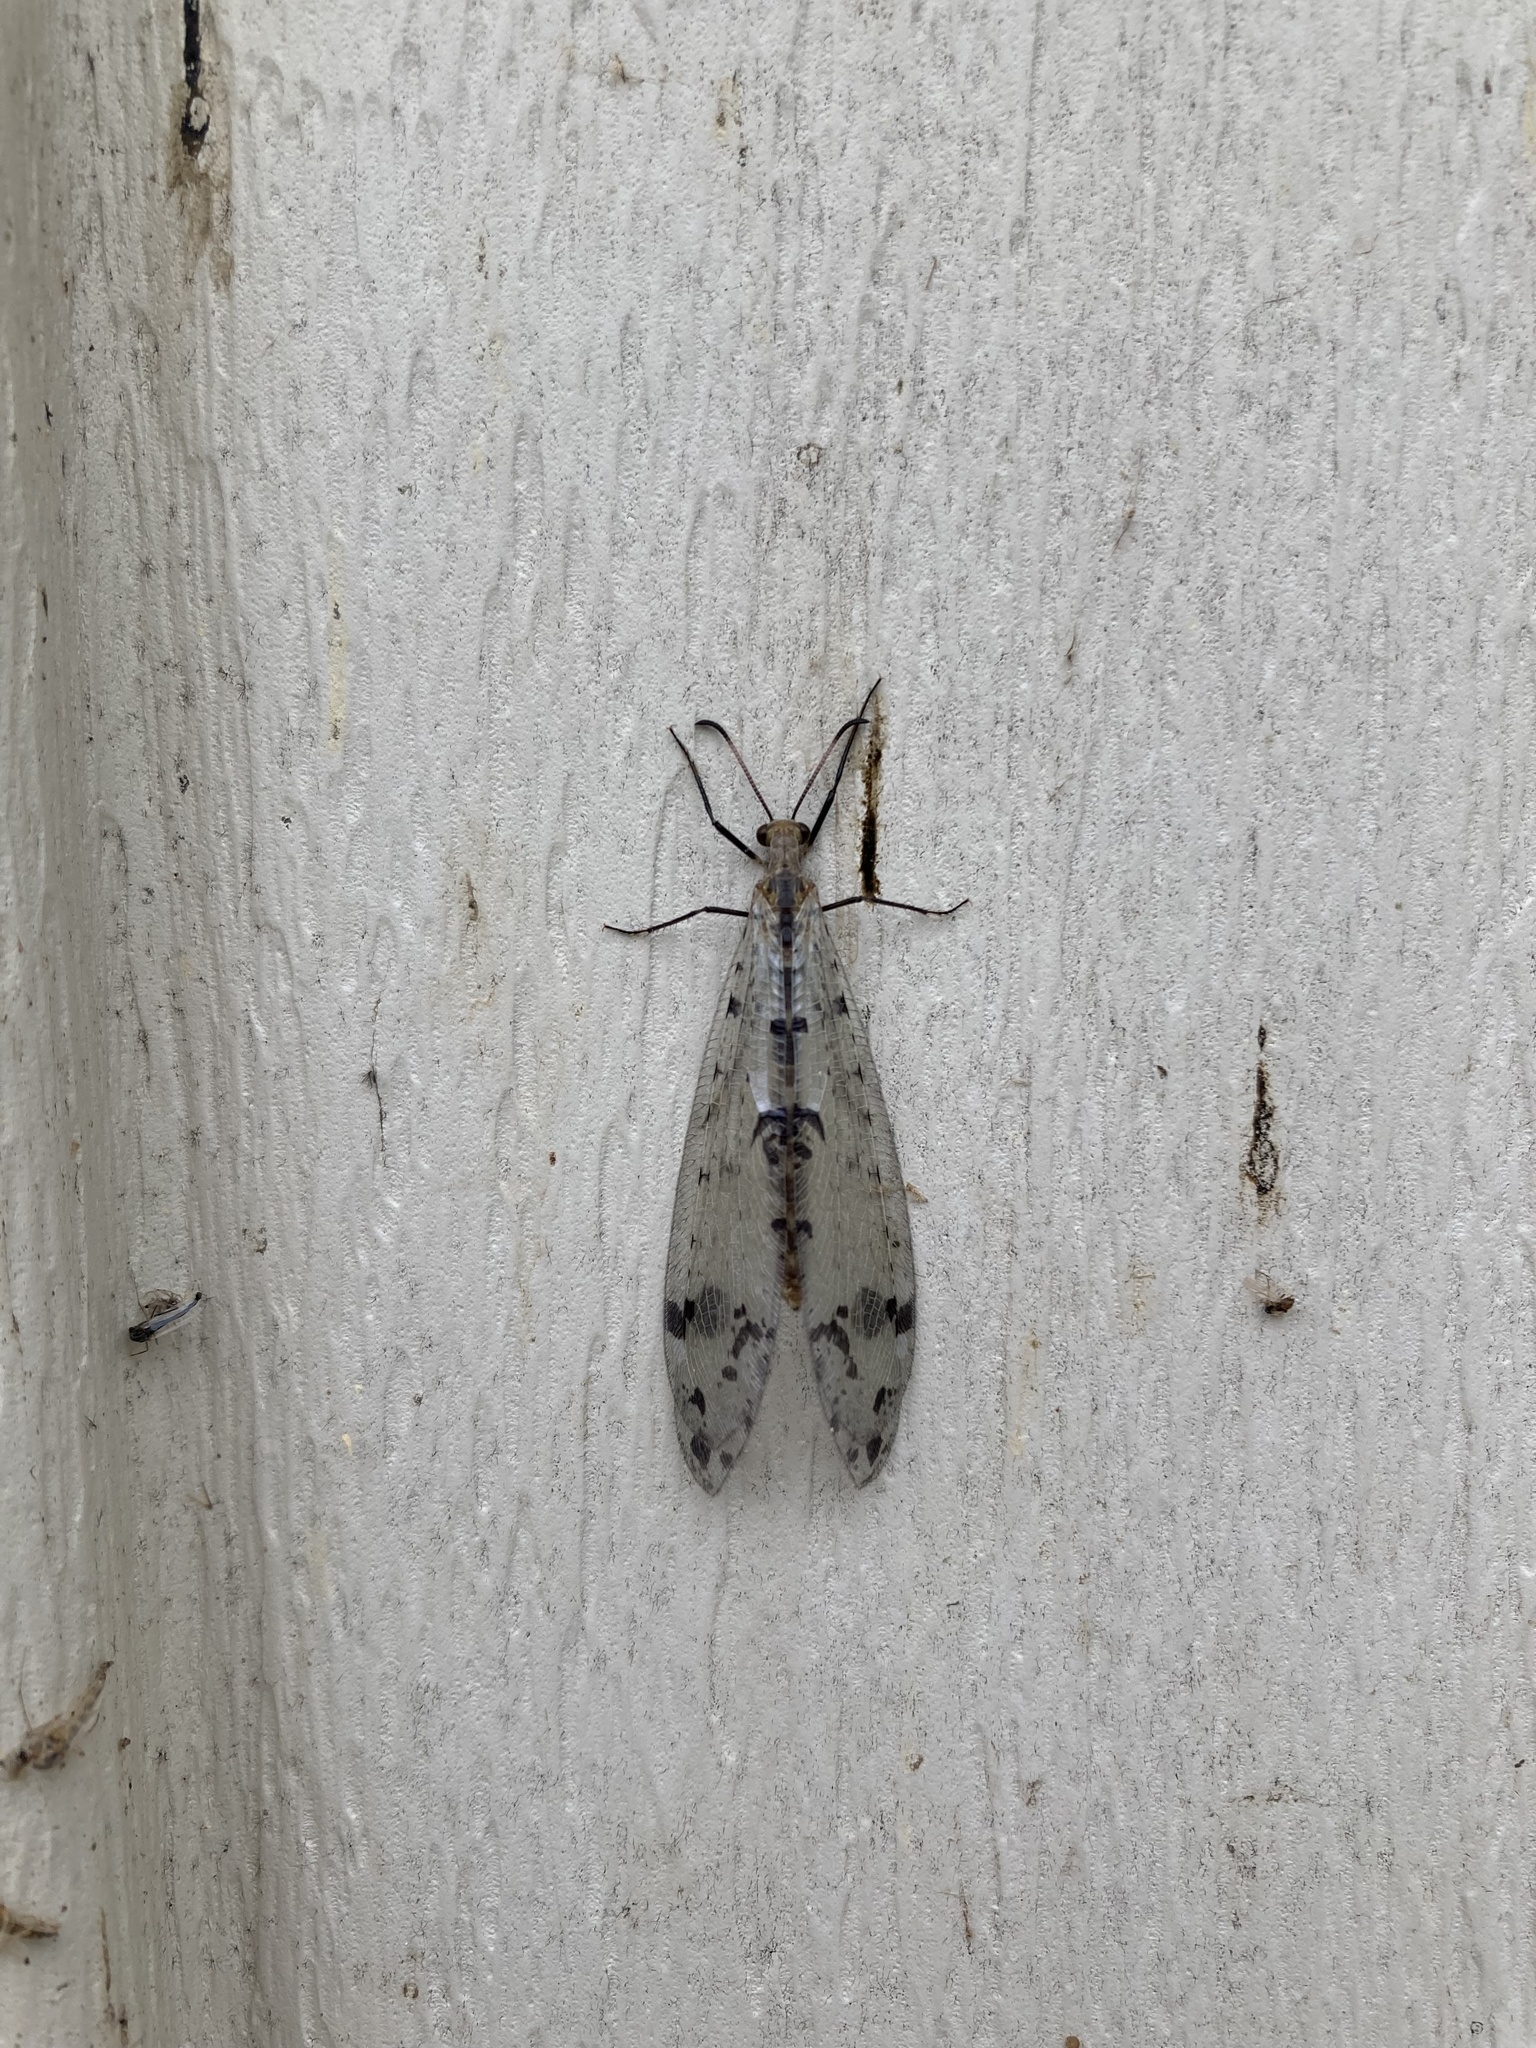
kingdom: Animalia
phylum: Arthropoda
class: Insecta
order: Neuroptera
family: Myrmeleontidae
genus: Dendroleon
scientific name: Dendroleon obsoletus
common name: Eastern spotted-winged antlion
